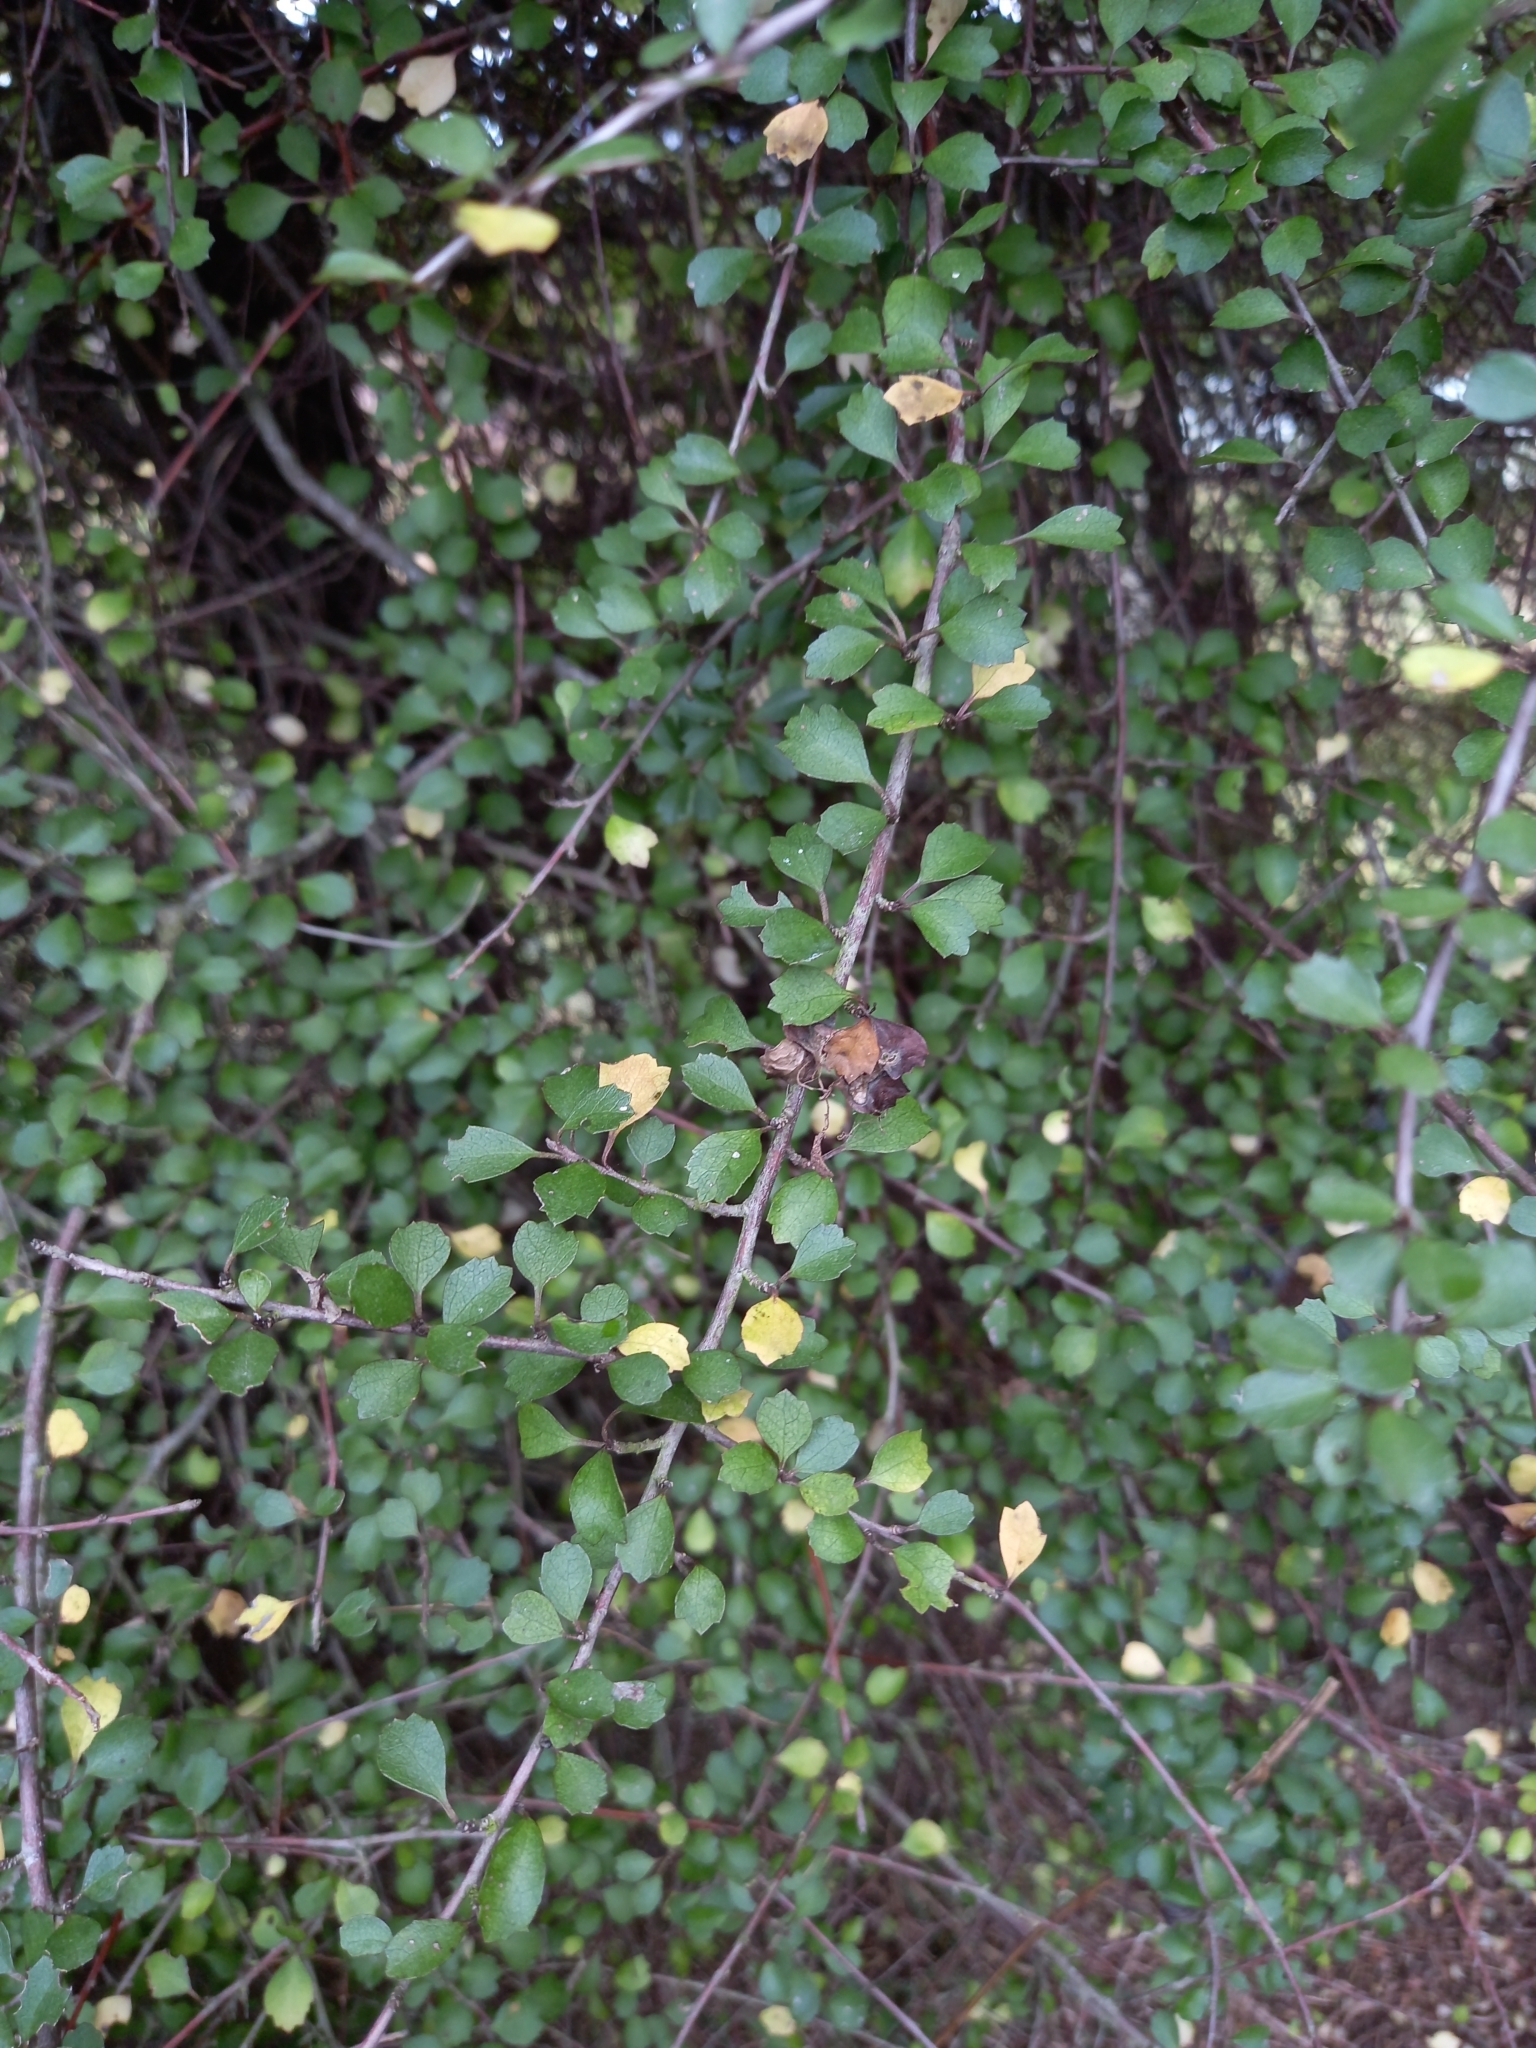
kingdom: Plantae
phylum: Tracheophyta
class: Magnoliopsida
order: Apiales
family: Pennantiaceae
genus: Pennantia
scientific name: Pennantia corymbosa
